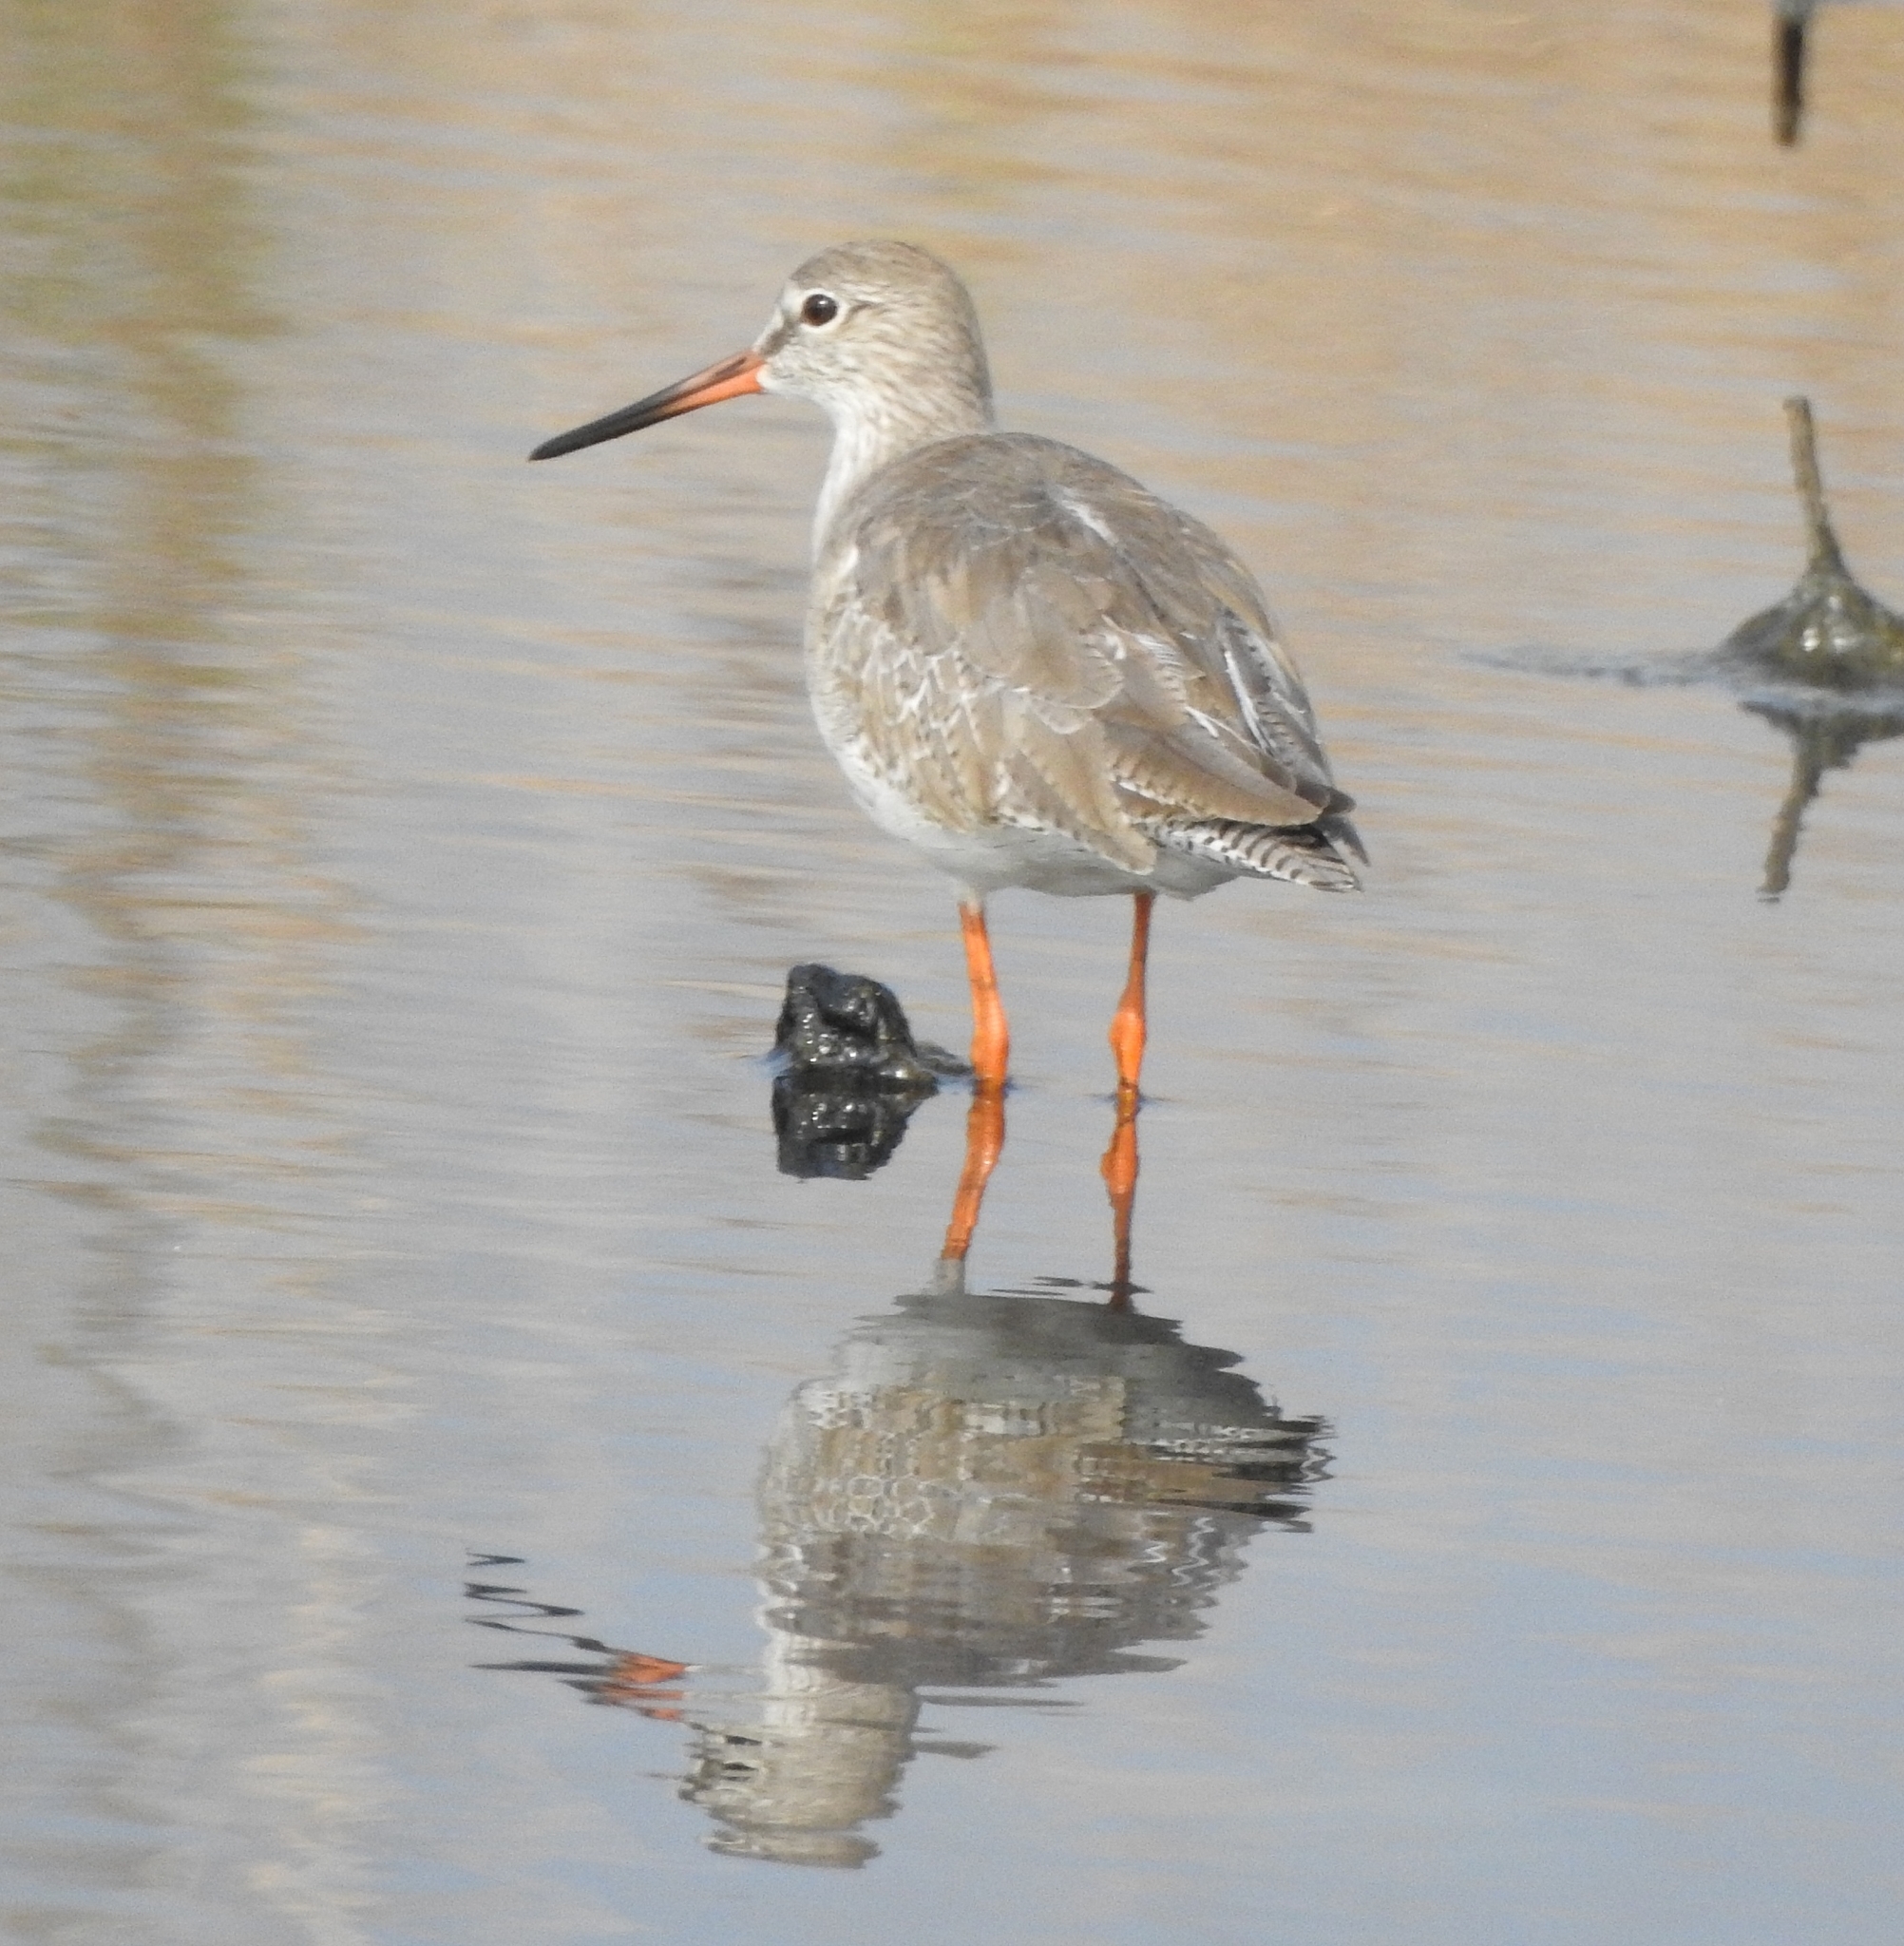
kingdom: Animalia
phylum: Chordata
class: Aves
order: Charadriiformes
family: Scolopacidae
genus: Tringa
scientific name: Tringa totanus
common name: Common redshank
